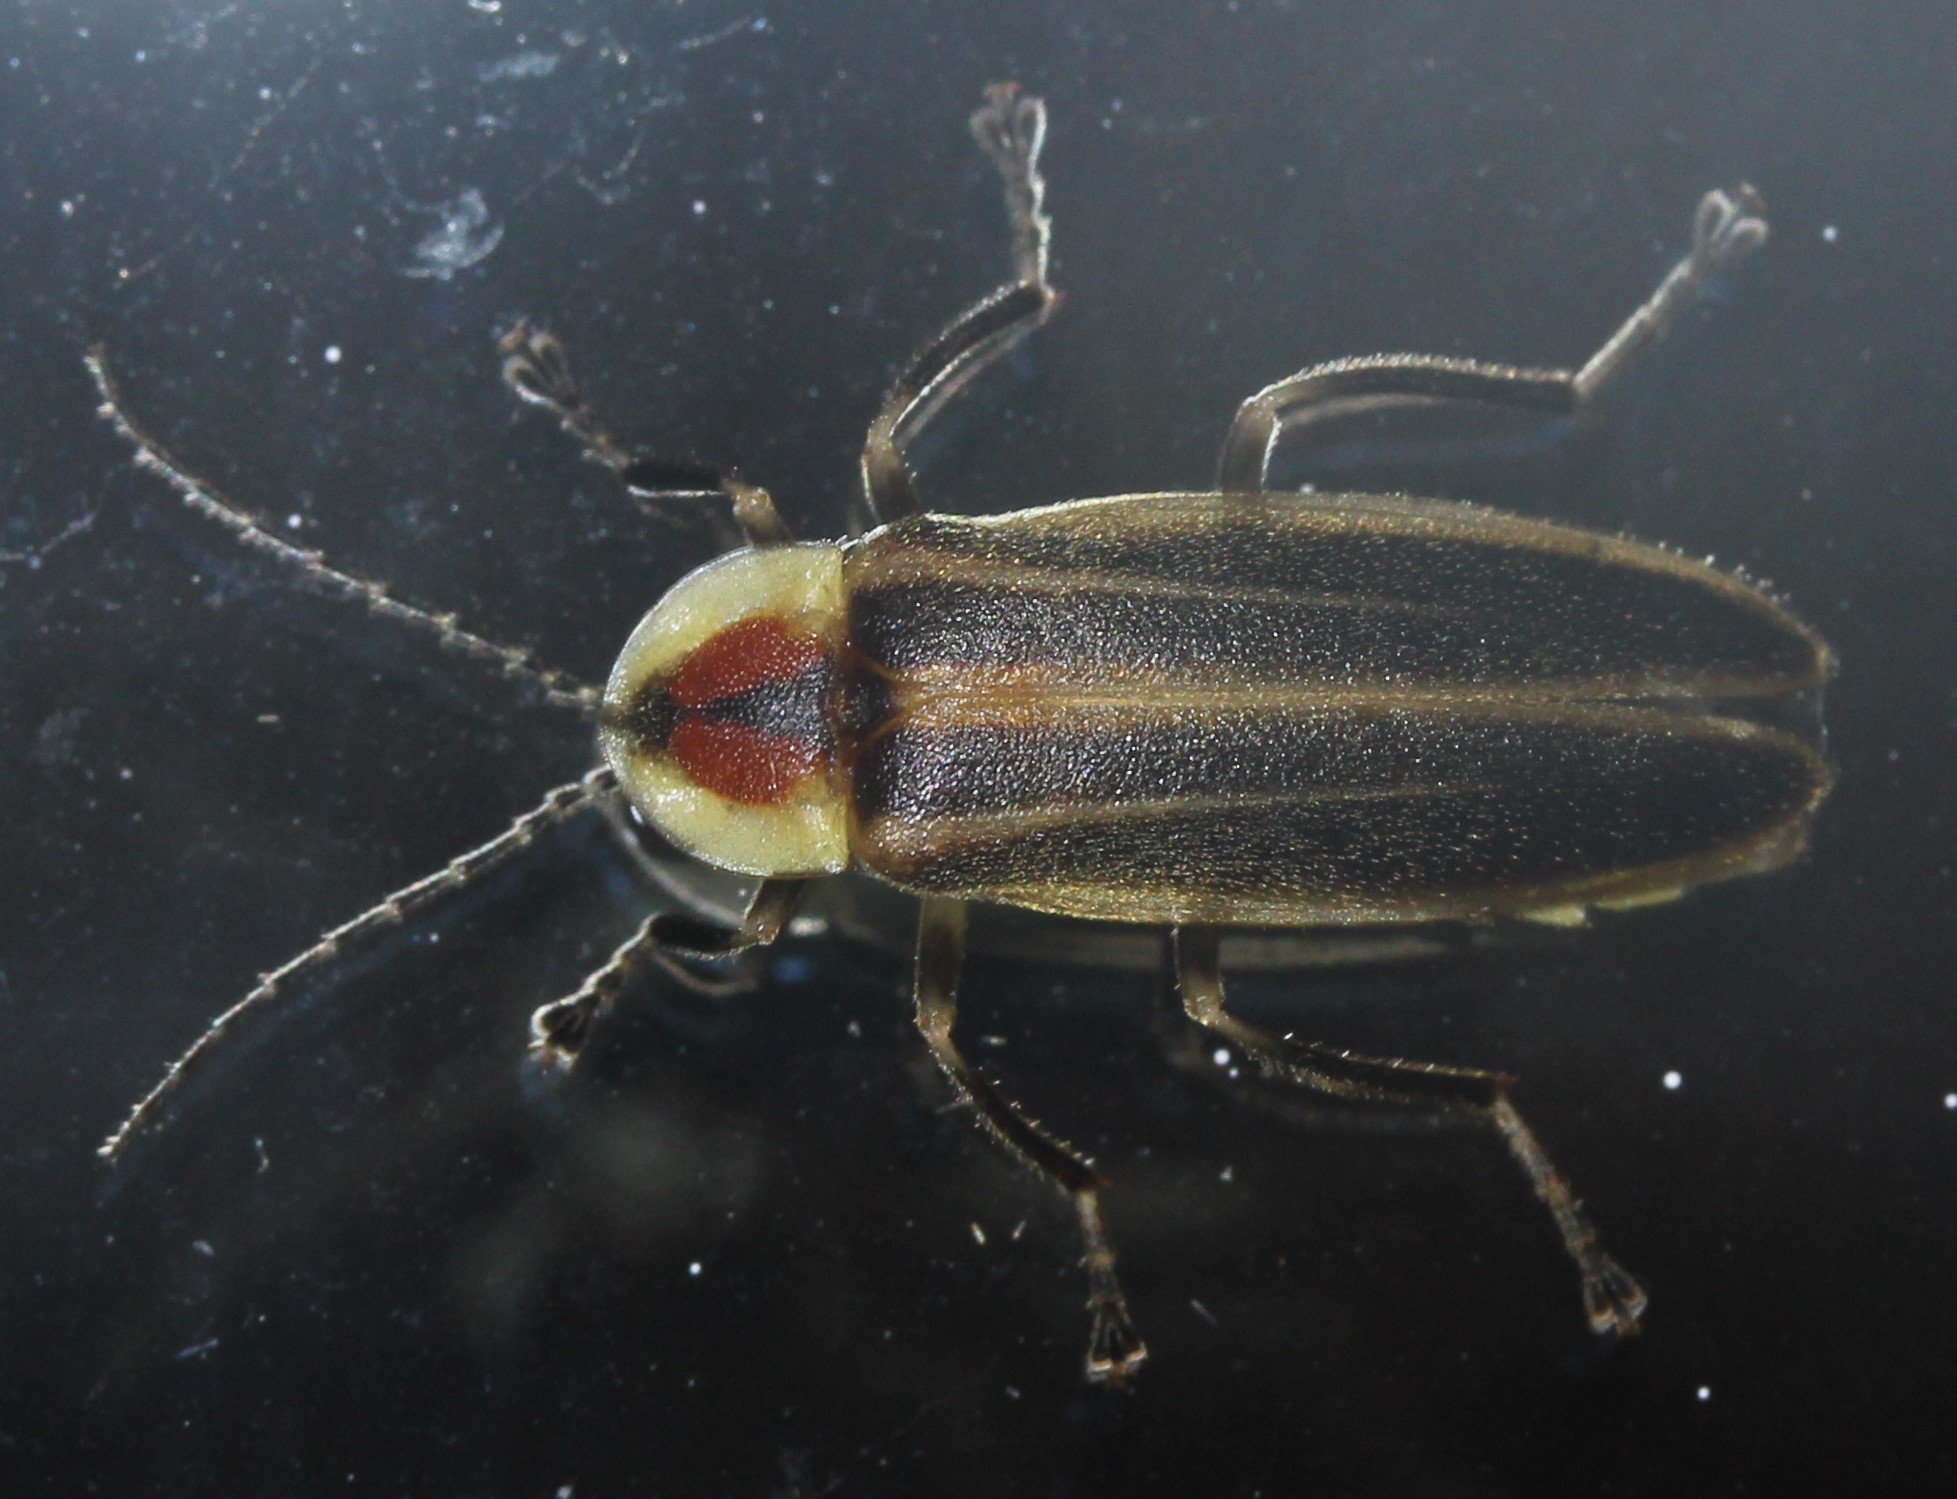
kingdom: Animalia
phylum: Arthropoda
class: Insecta
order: Coleoptera
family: Lampyridae
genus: Photuris
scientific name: Photuris
